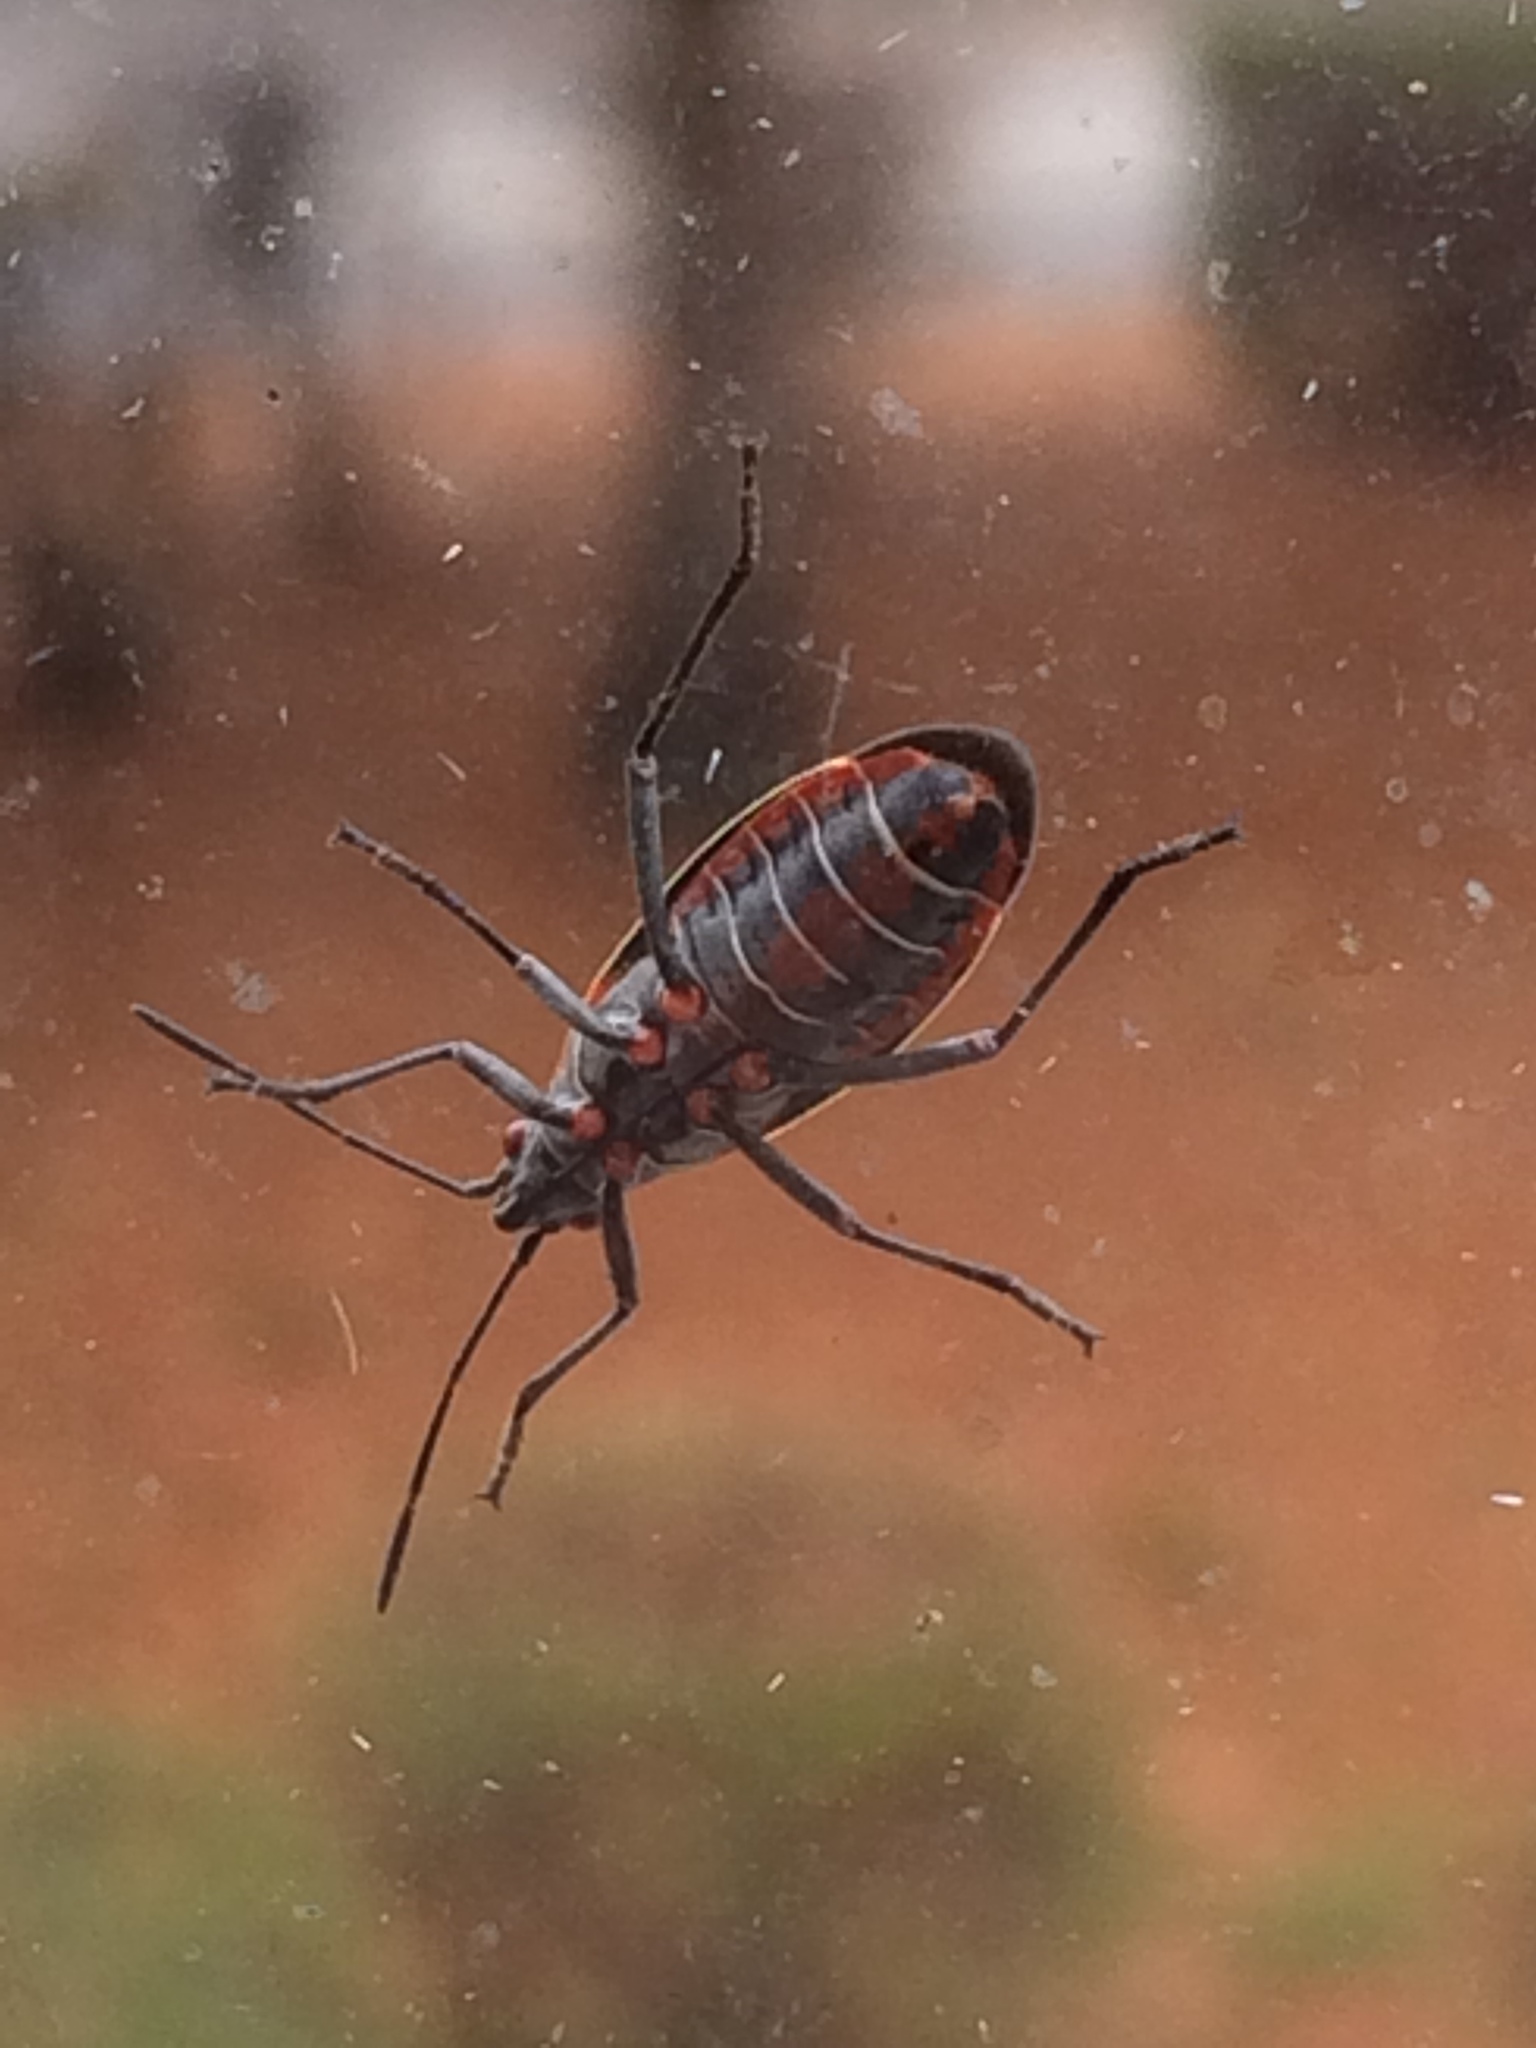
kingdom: Animalia
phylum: Arthropoda
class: Insecta
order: Hemiptera
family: Rhopalidae
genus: Boisea
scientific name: Boisea rubrolineata
